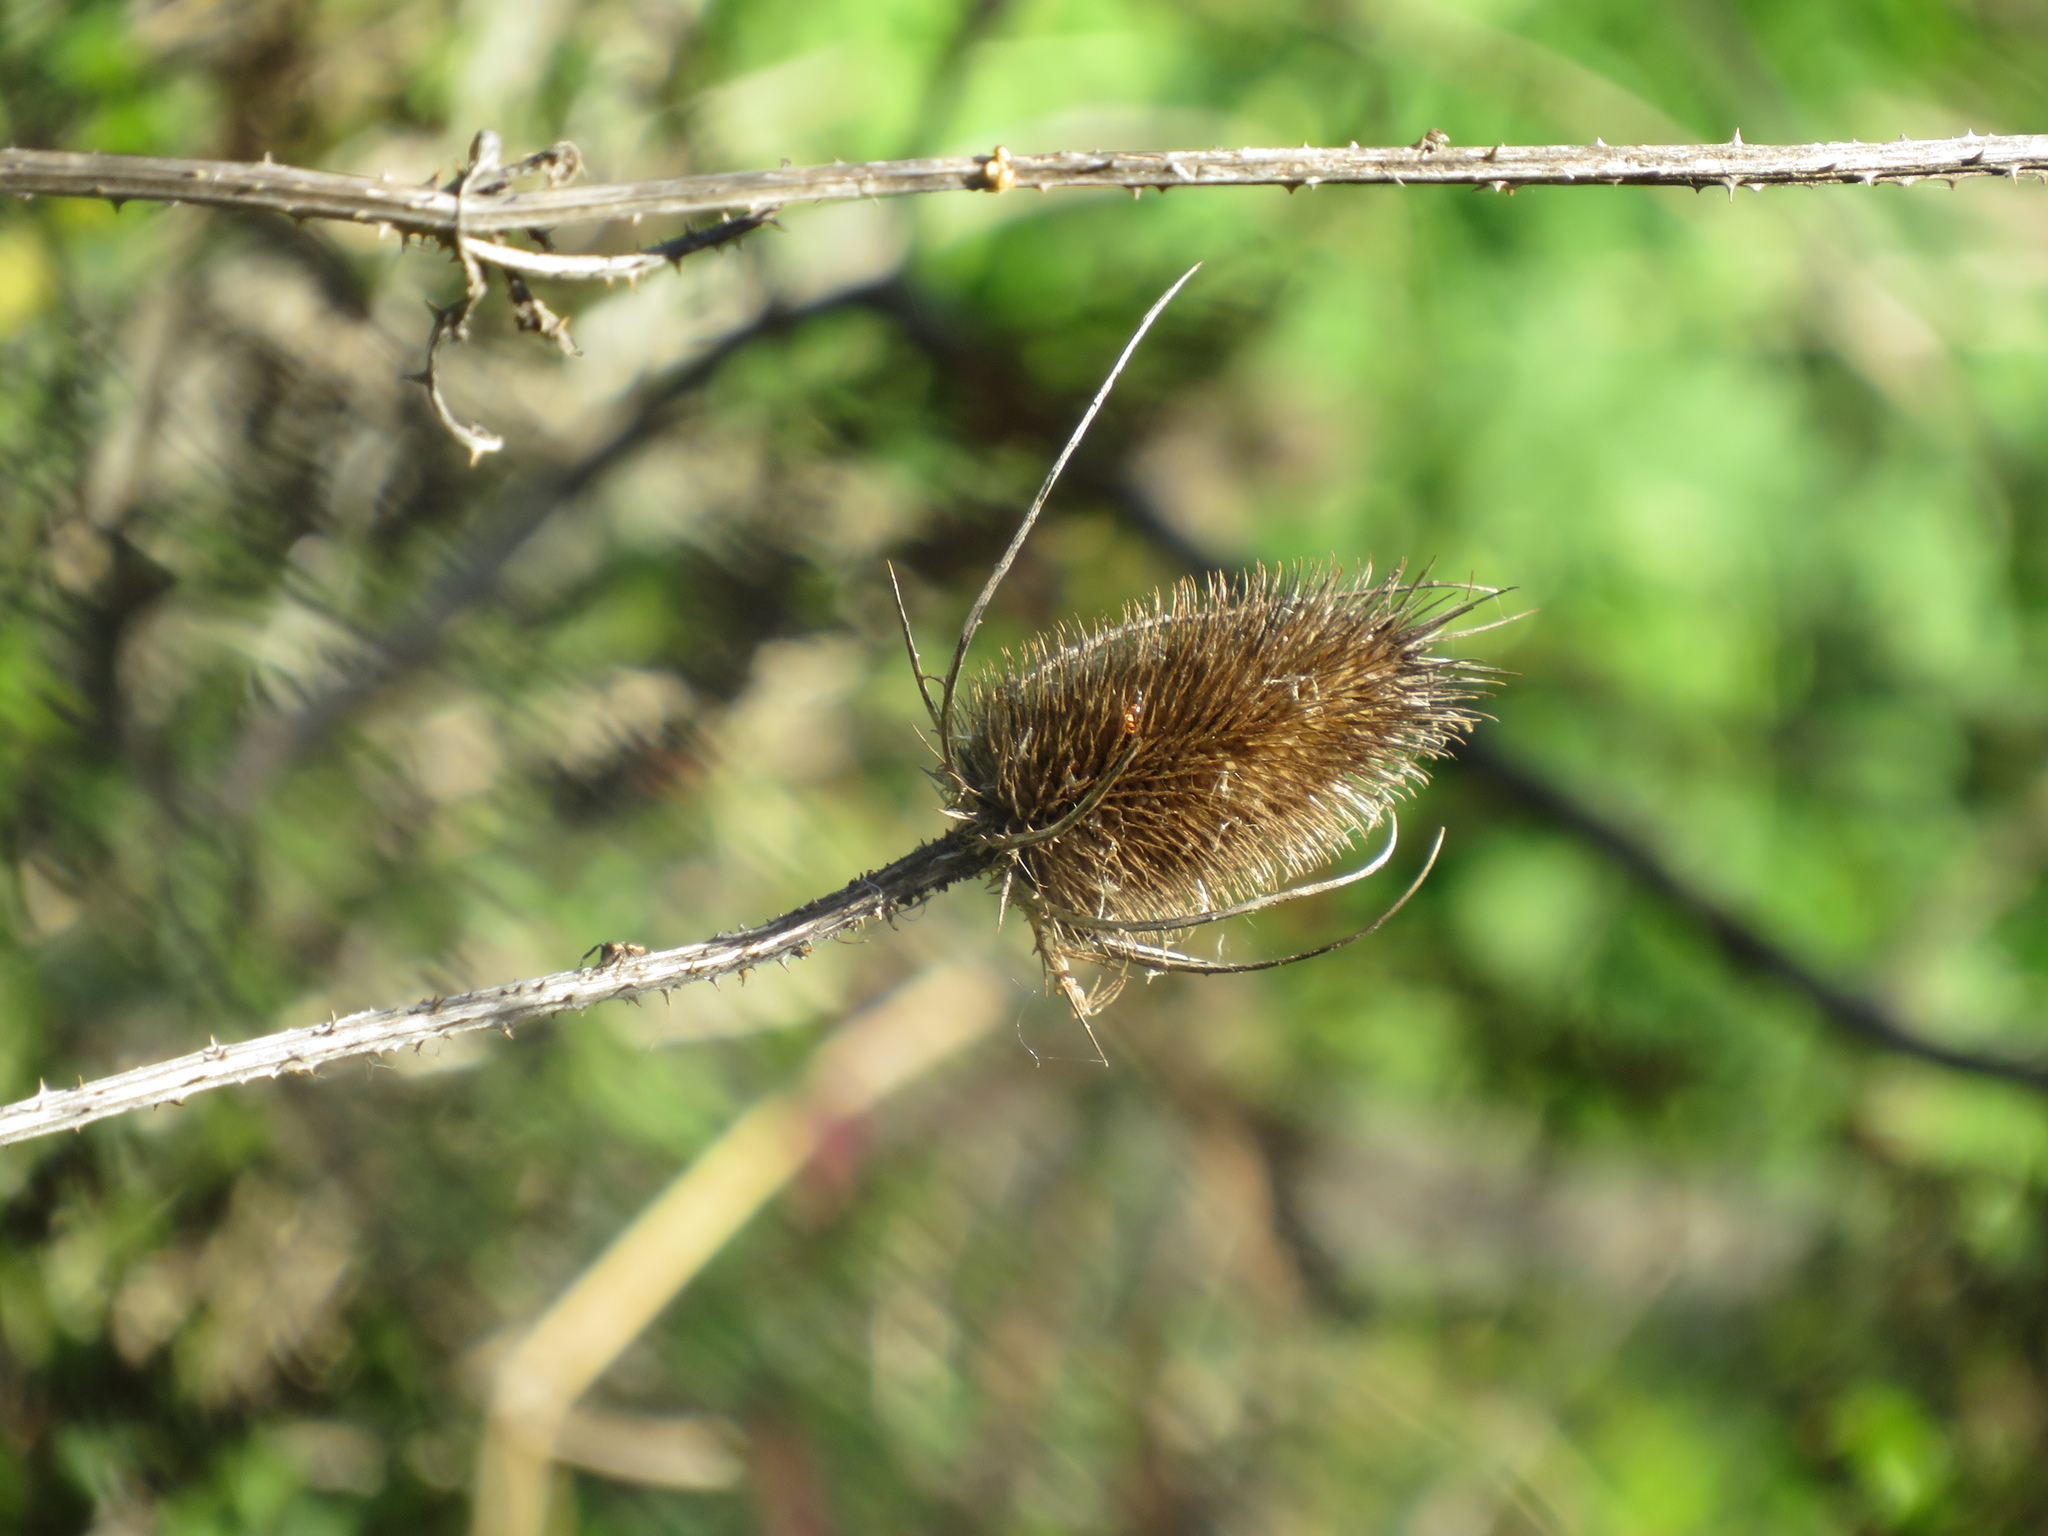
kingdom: Plantae
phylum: Tracheophyta
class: Magnoliopsida
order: Dipsacales
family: Caprifoliaceae
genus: Dipsacus
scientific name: Dipsacus fullonum
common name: Teasel
